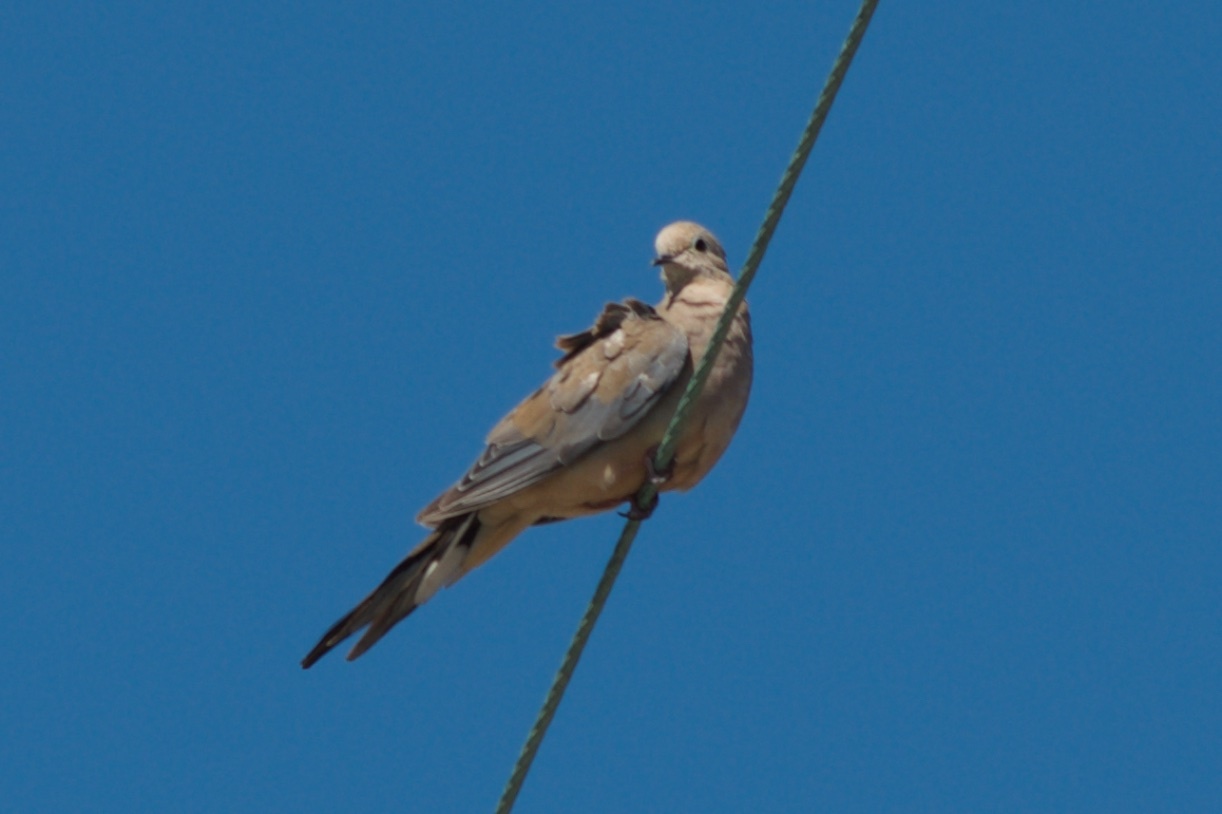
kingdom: Animalia
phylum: Chordata
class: Aves
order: Columbiformes
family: Columbidae
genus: Zenaida
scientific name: Zenaida macroura
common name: Mourning dove
